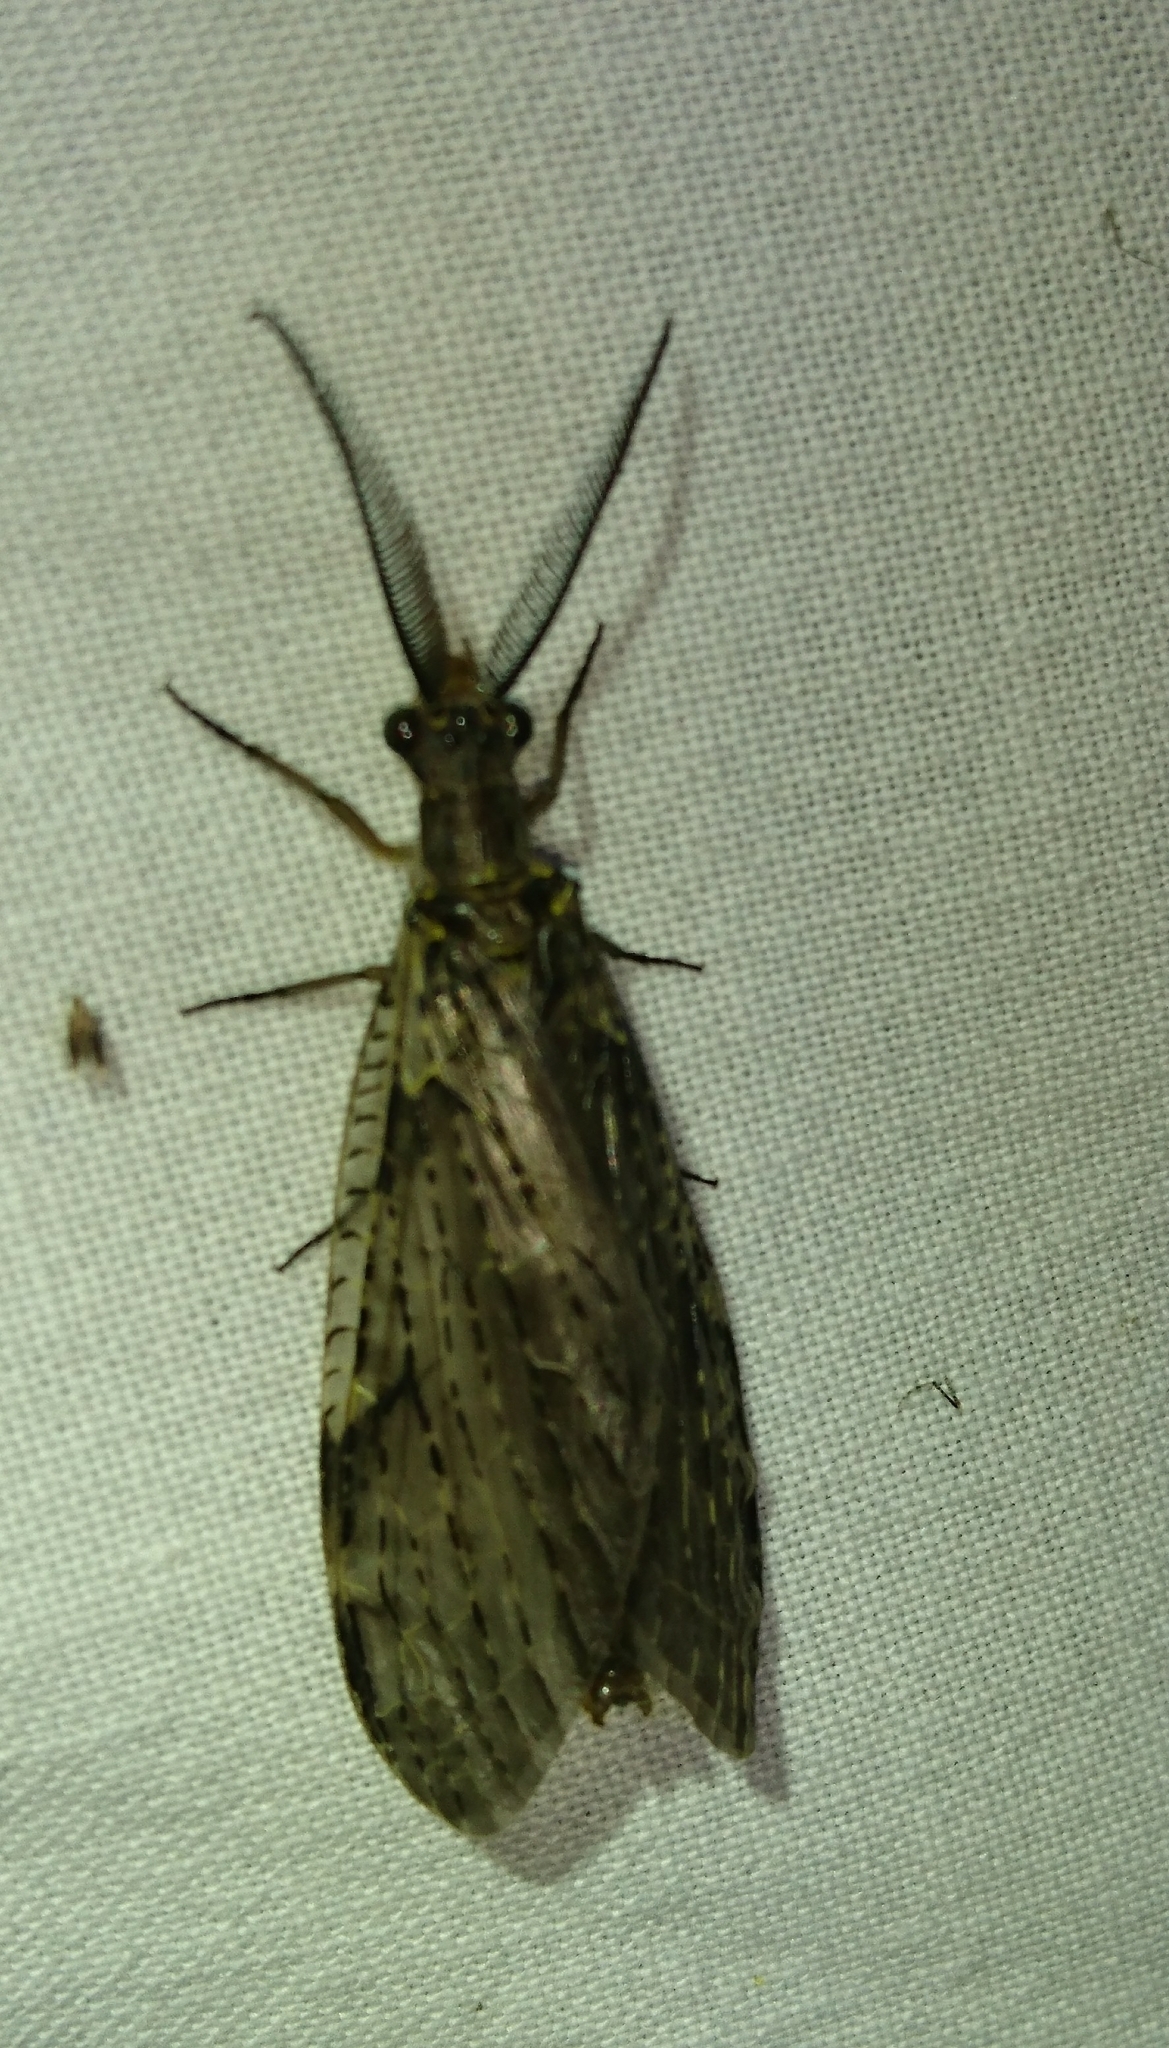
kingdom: Animalia
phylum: Arthropoda
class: Insecta
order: Megaloptera
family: Corydalidae
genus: Chauliodes
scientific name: Chauliodes rastricornis
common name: Spring fishfly
